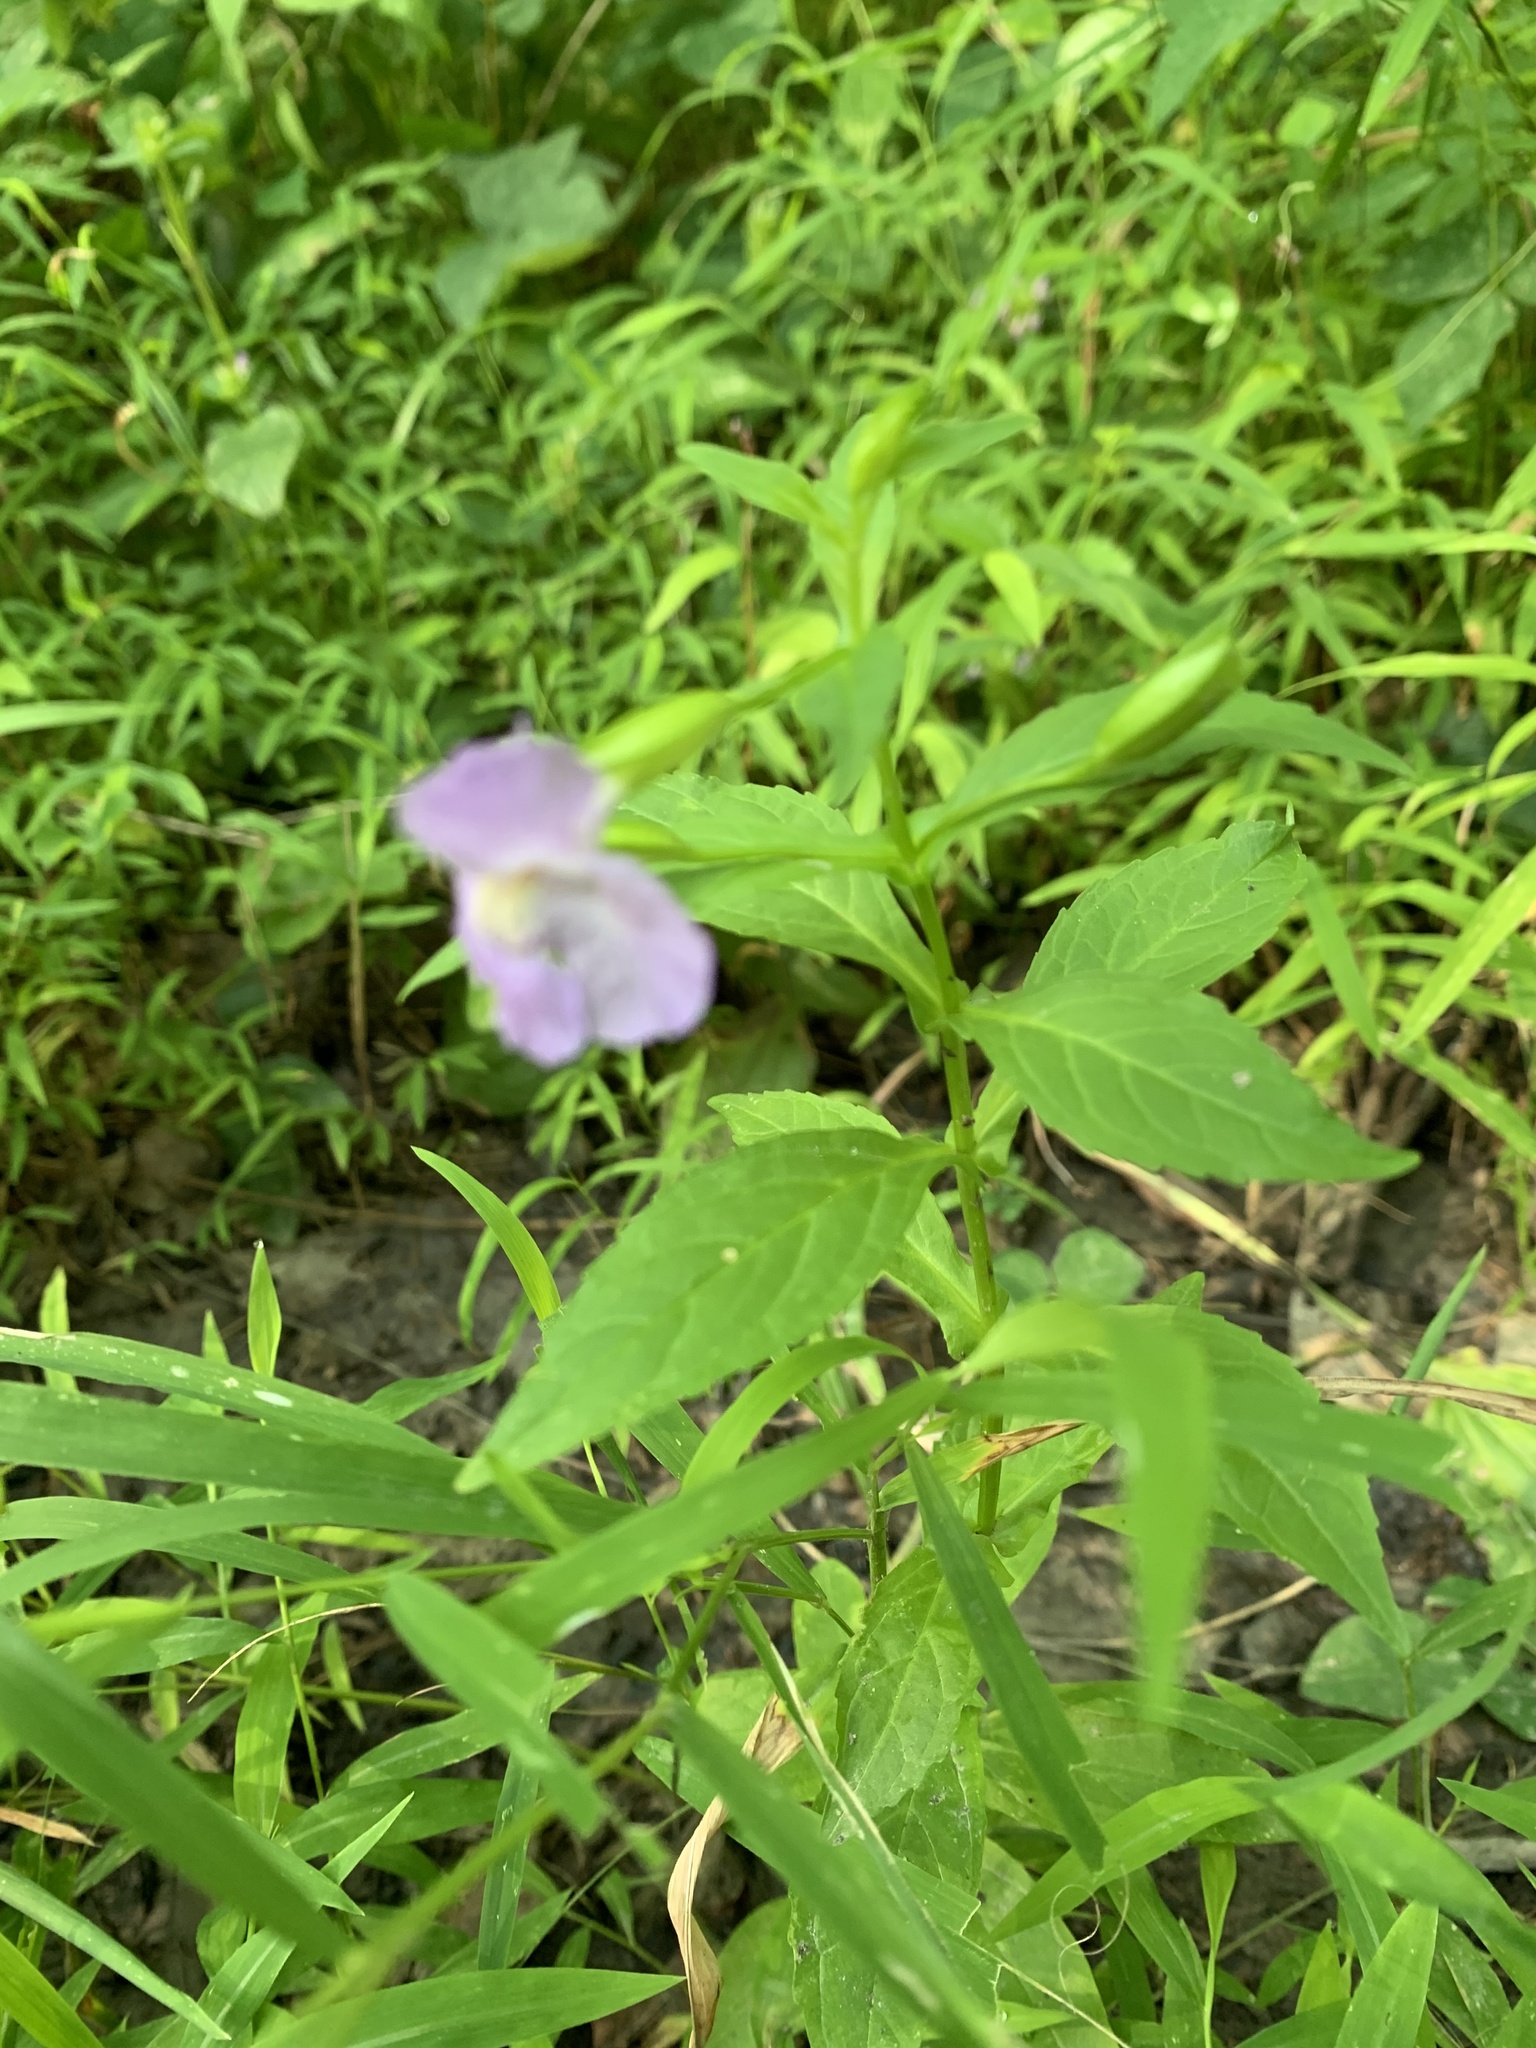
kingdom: Plantae
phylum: Tracheophyta
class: Magnoliopsida
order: Lamiales
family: Phrymaceae
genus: Mimulus
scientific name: Mimulus ringens
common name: Allegheny monkeyflower
